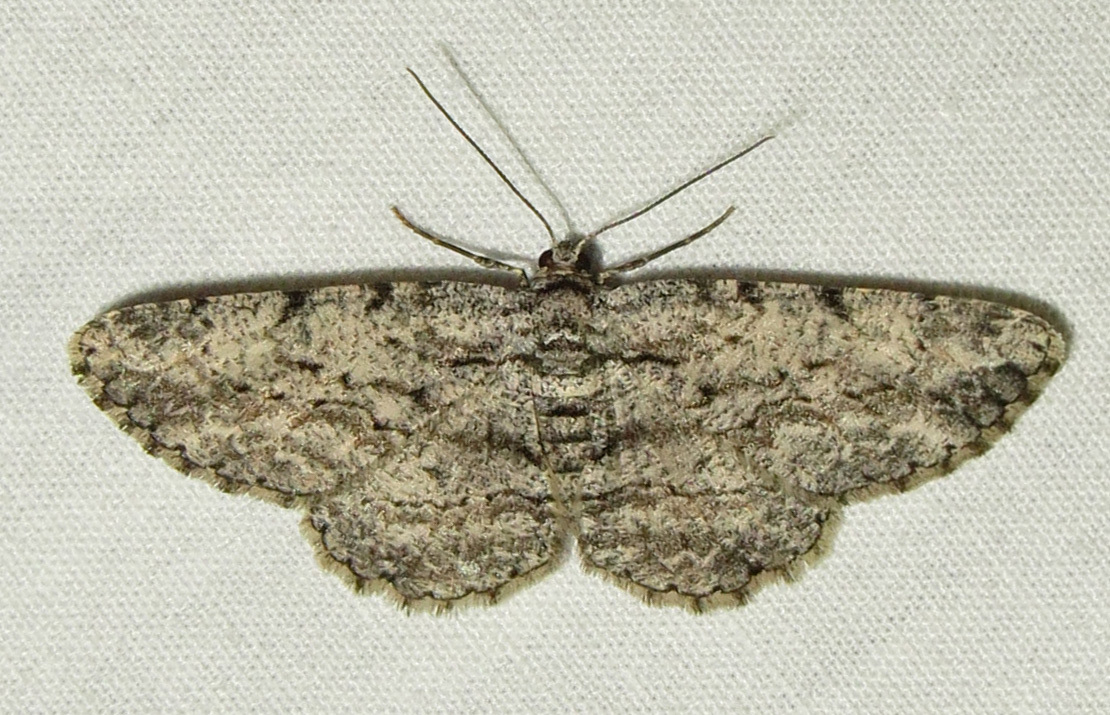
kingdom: Animalia
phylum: Arthropoda
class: Insecta
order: Lepidoptera
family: Geometridae
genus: Anavitrinella
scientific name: Anavitrinella pampinaria
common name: Common gray
